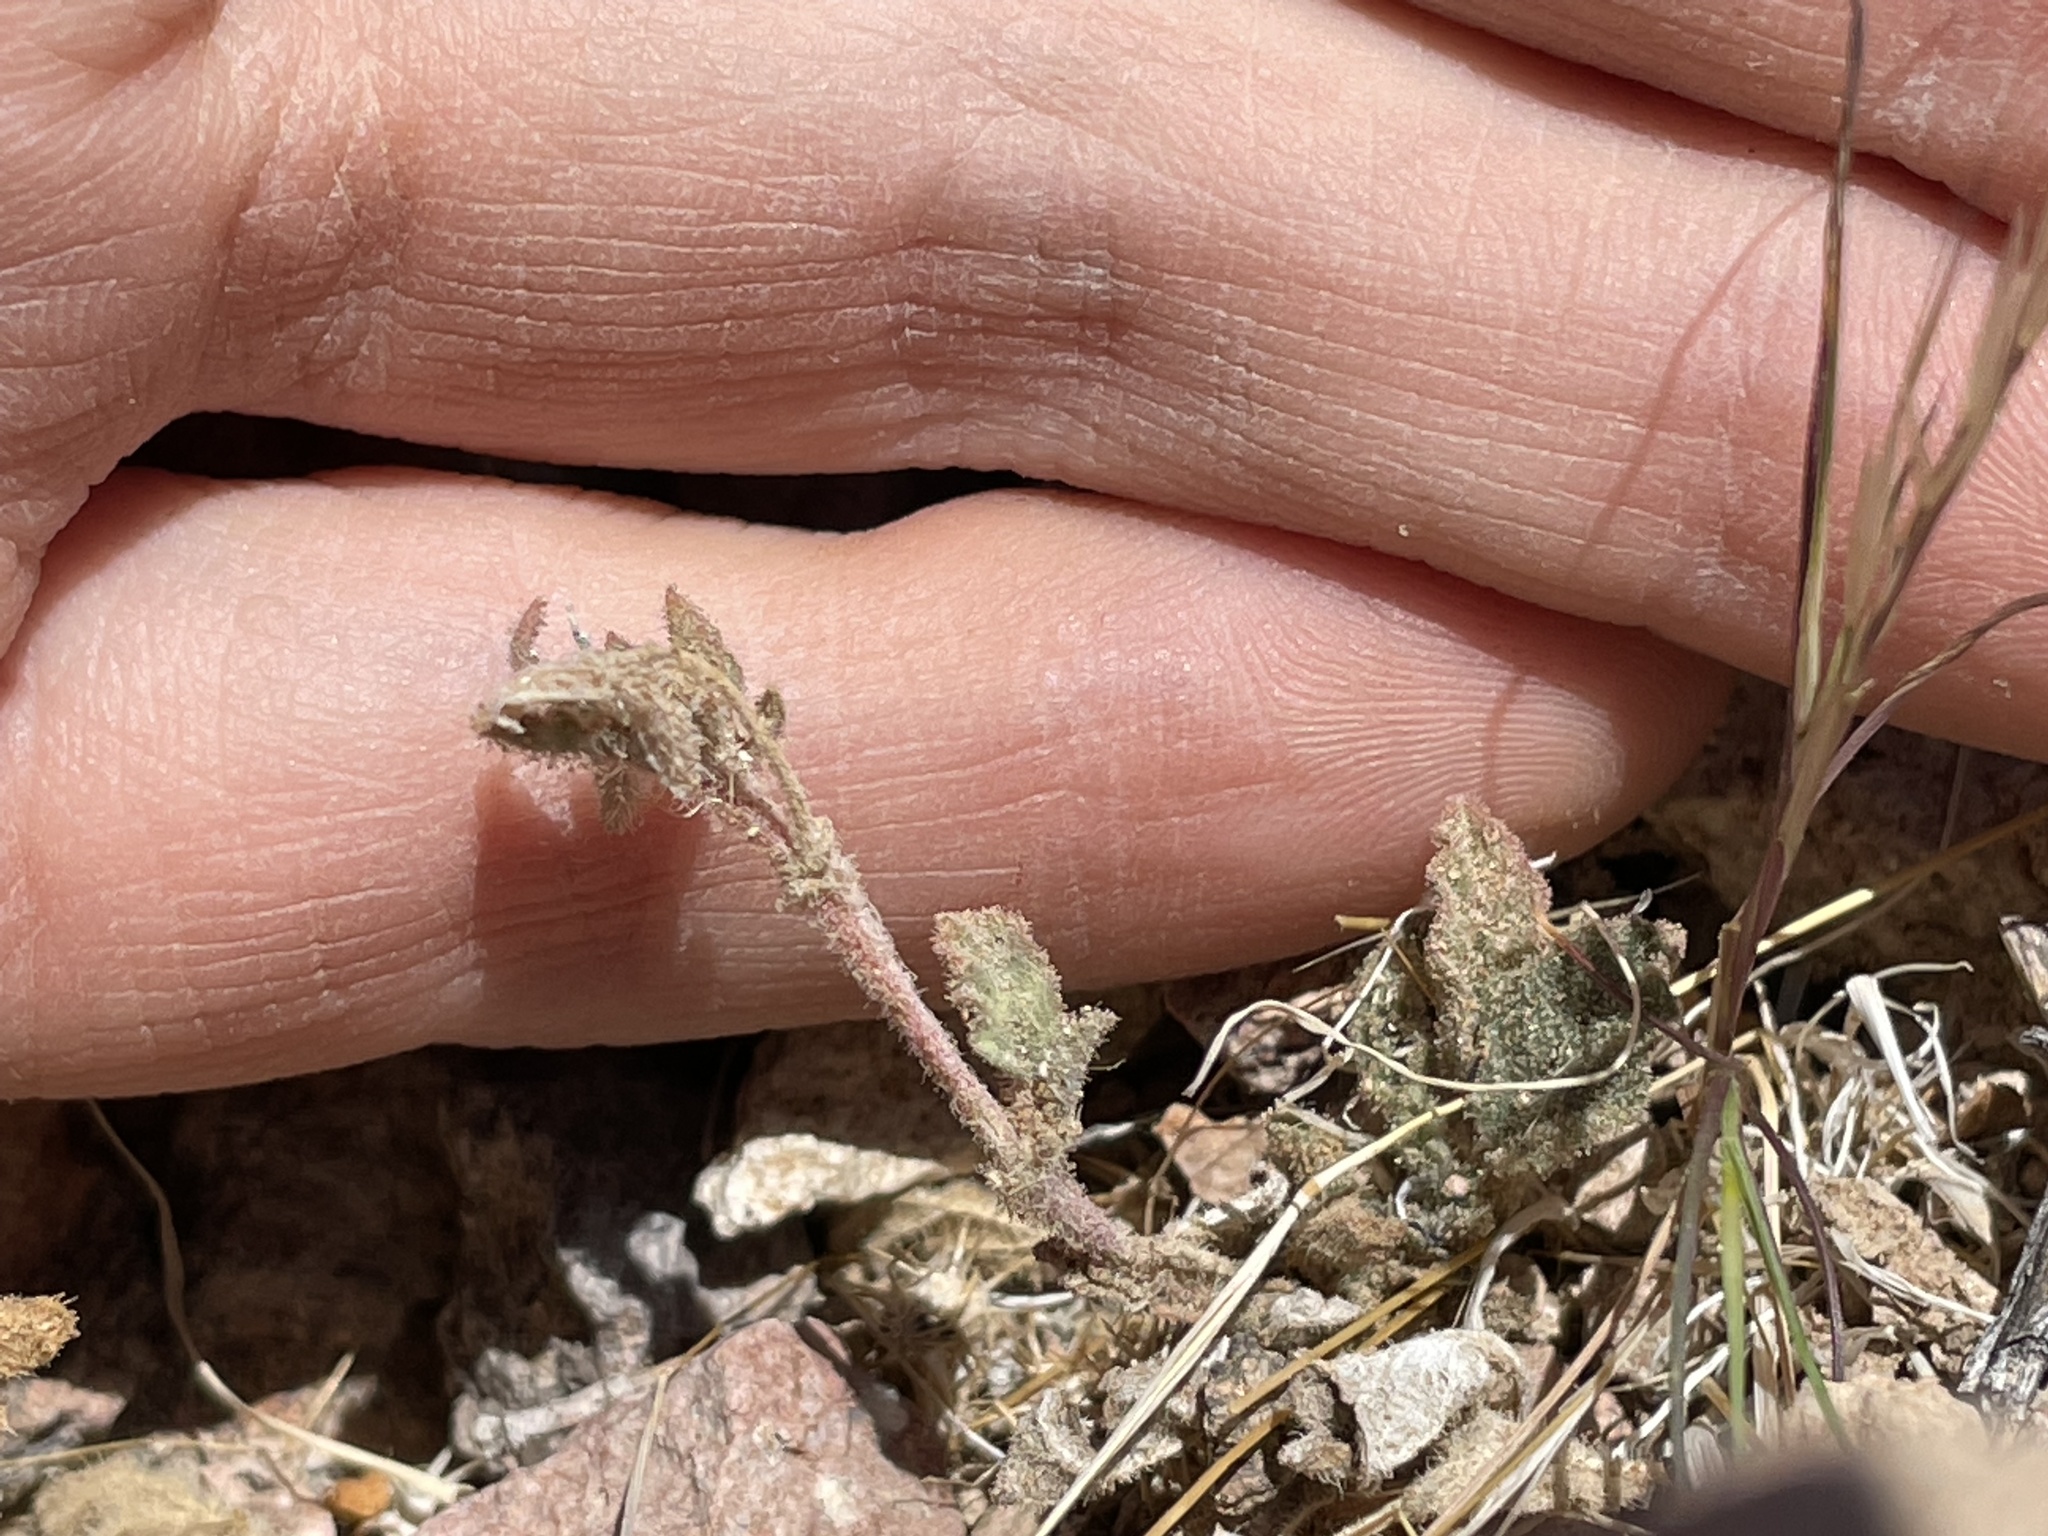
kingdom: Plantae
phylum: Tracheophyta
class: Magnoliopsida
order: Caryophyllales
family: Nyctaginaceae
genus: Allionia
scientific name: Allionia incarnata
